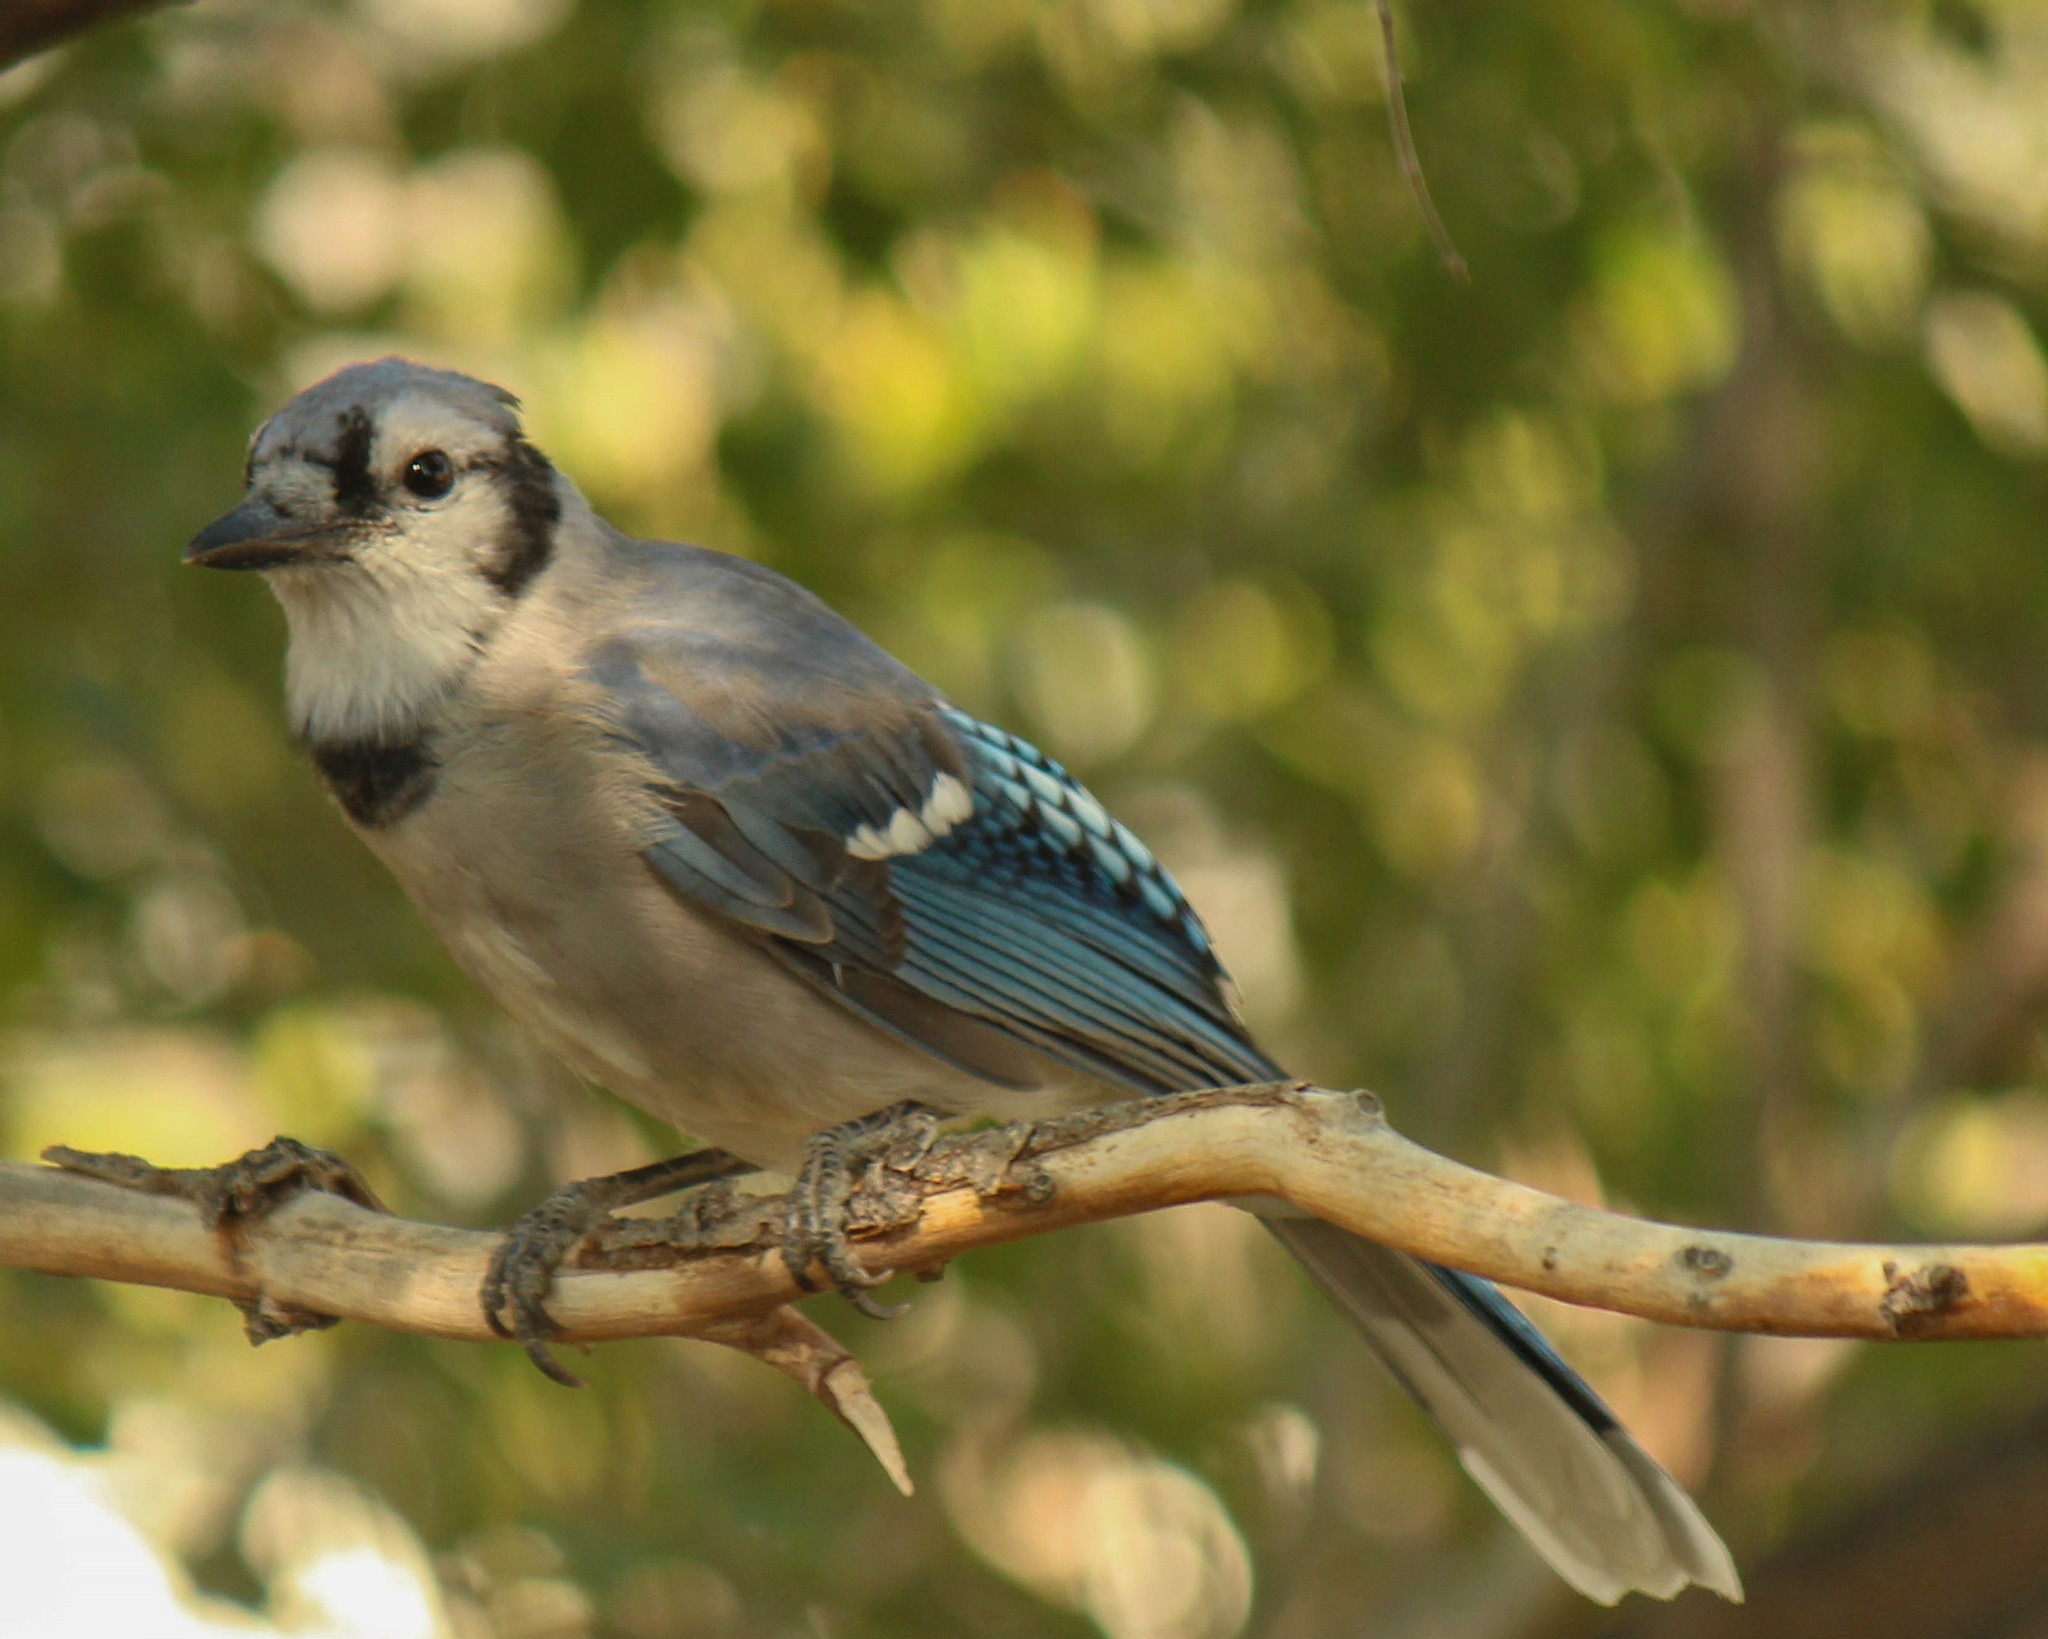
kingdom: Animalia
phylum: Chordata
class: Aves
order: Passeriformes
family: Corvidae
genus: Cyanocitta
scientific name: Cyanocitta cristata
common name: Blue jay
